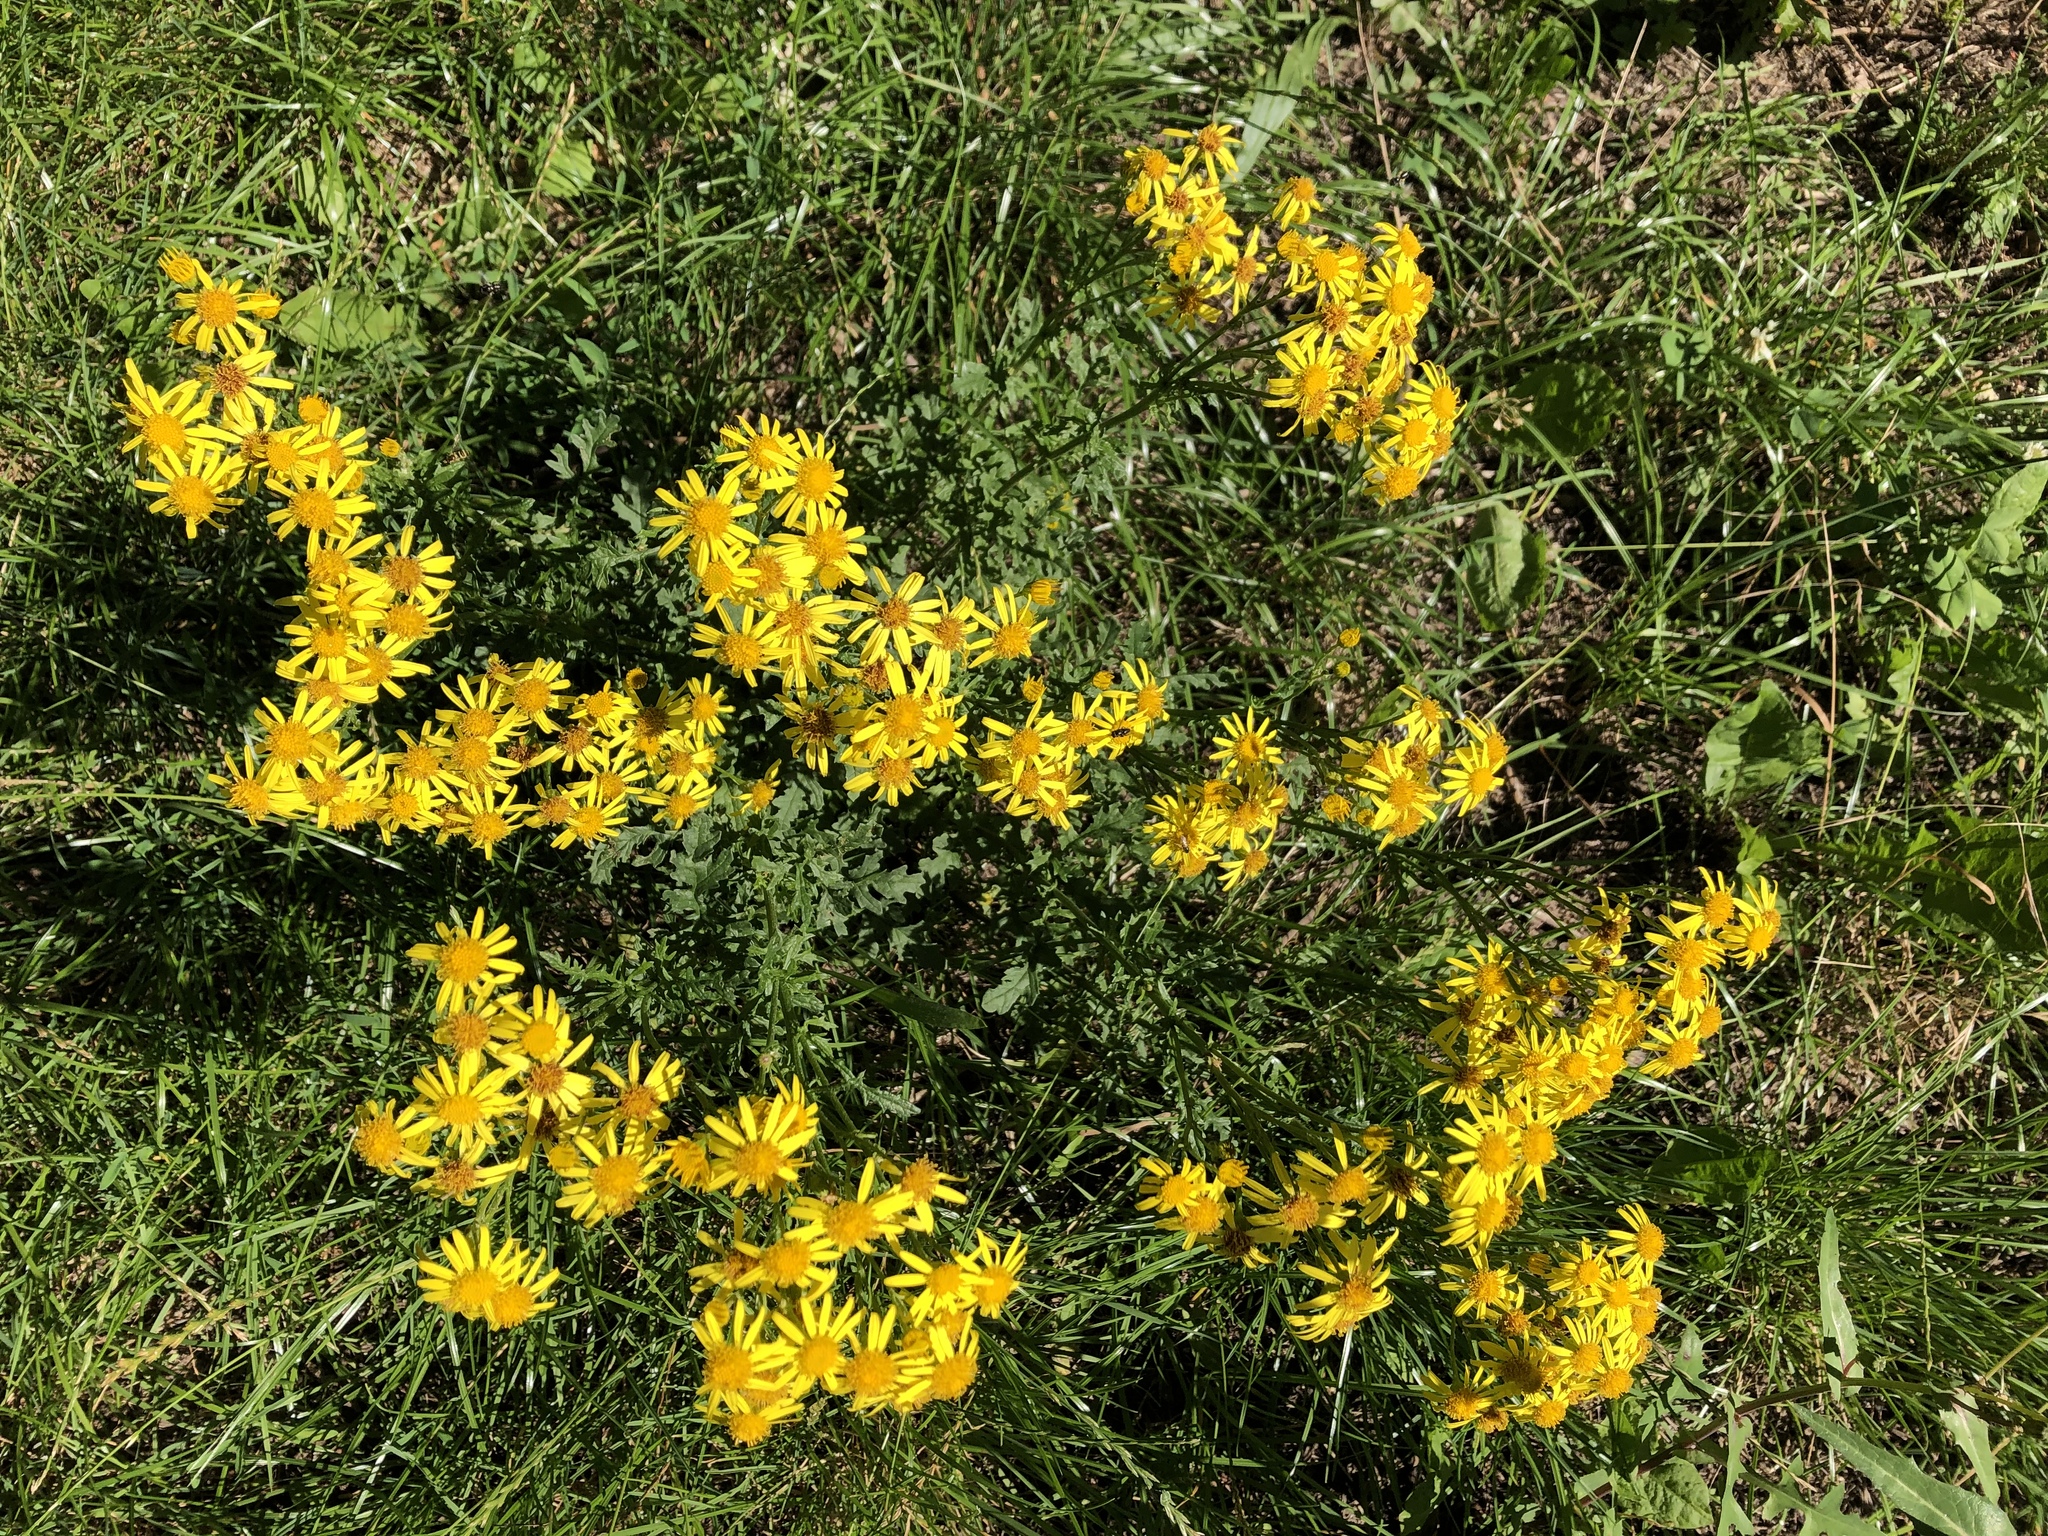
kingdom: Plantae
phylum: Tracheophyta
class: Magnoliopsida
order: Asterales
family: Asteraceae
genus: Jacobaea
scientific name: Jacobaea vulgaris
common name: Stinking willie
